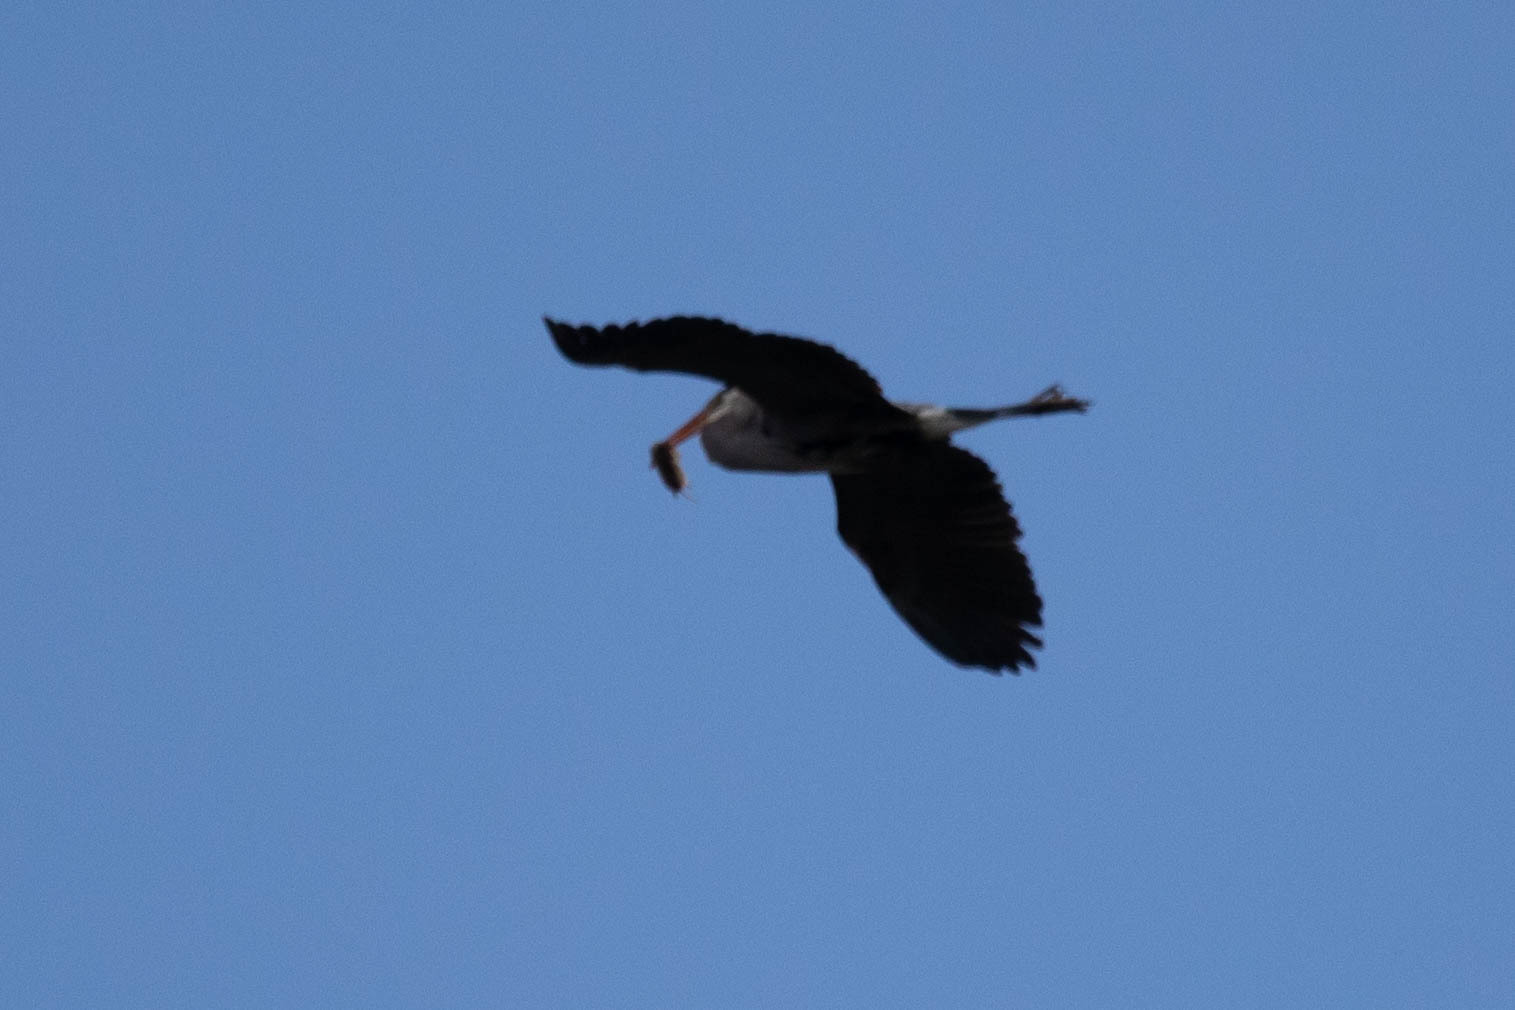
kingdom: Animalia
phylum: Chordata
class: Aves
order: Pelecaniformes
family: Ardeidae
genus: Ardea
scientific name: Ardea herodias
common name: Great blue heron
